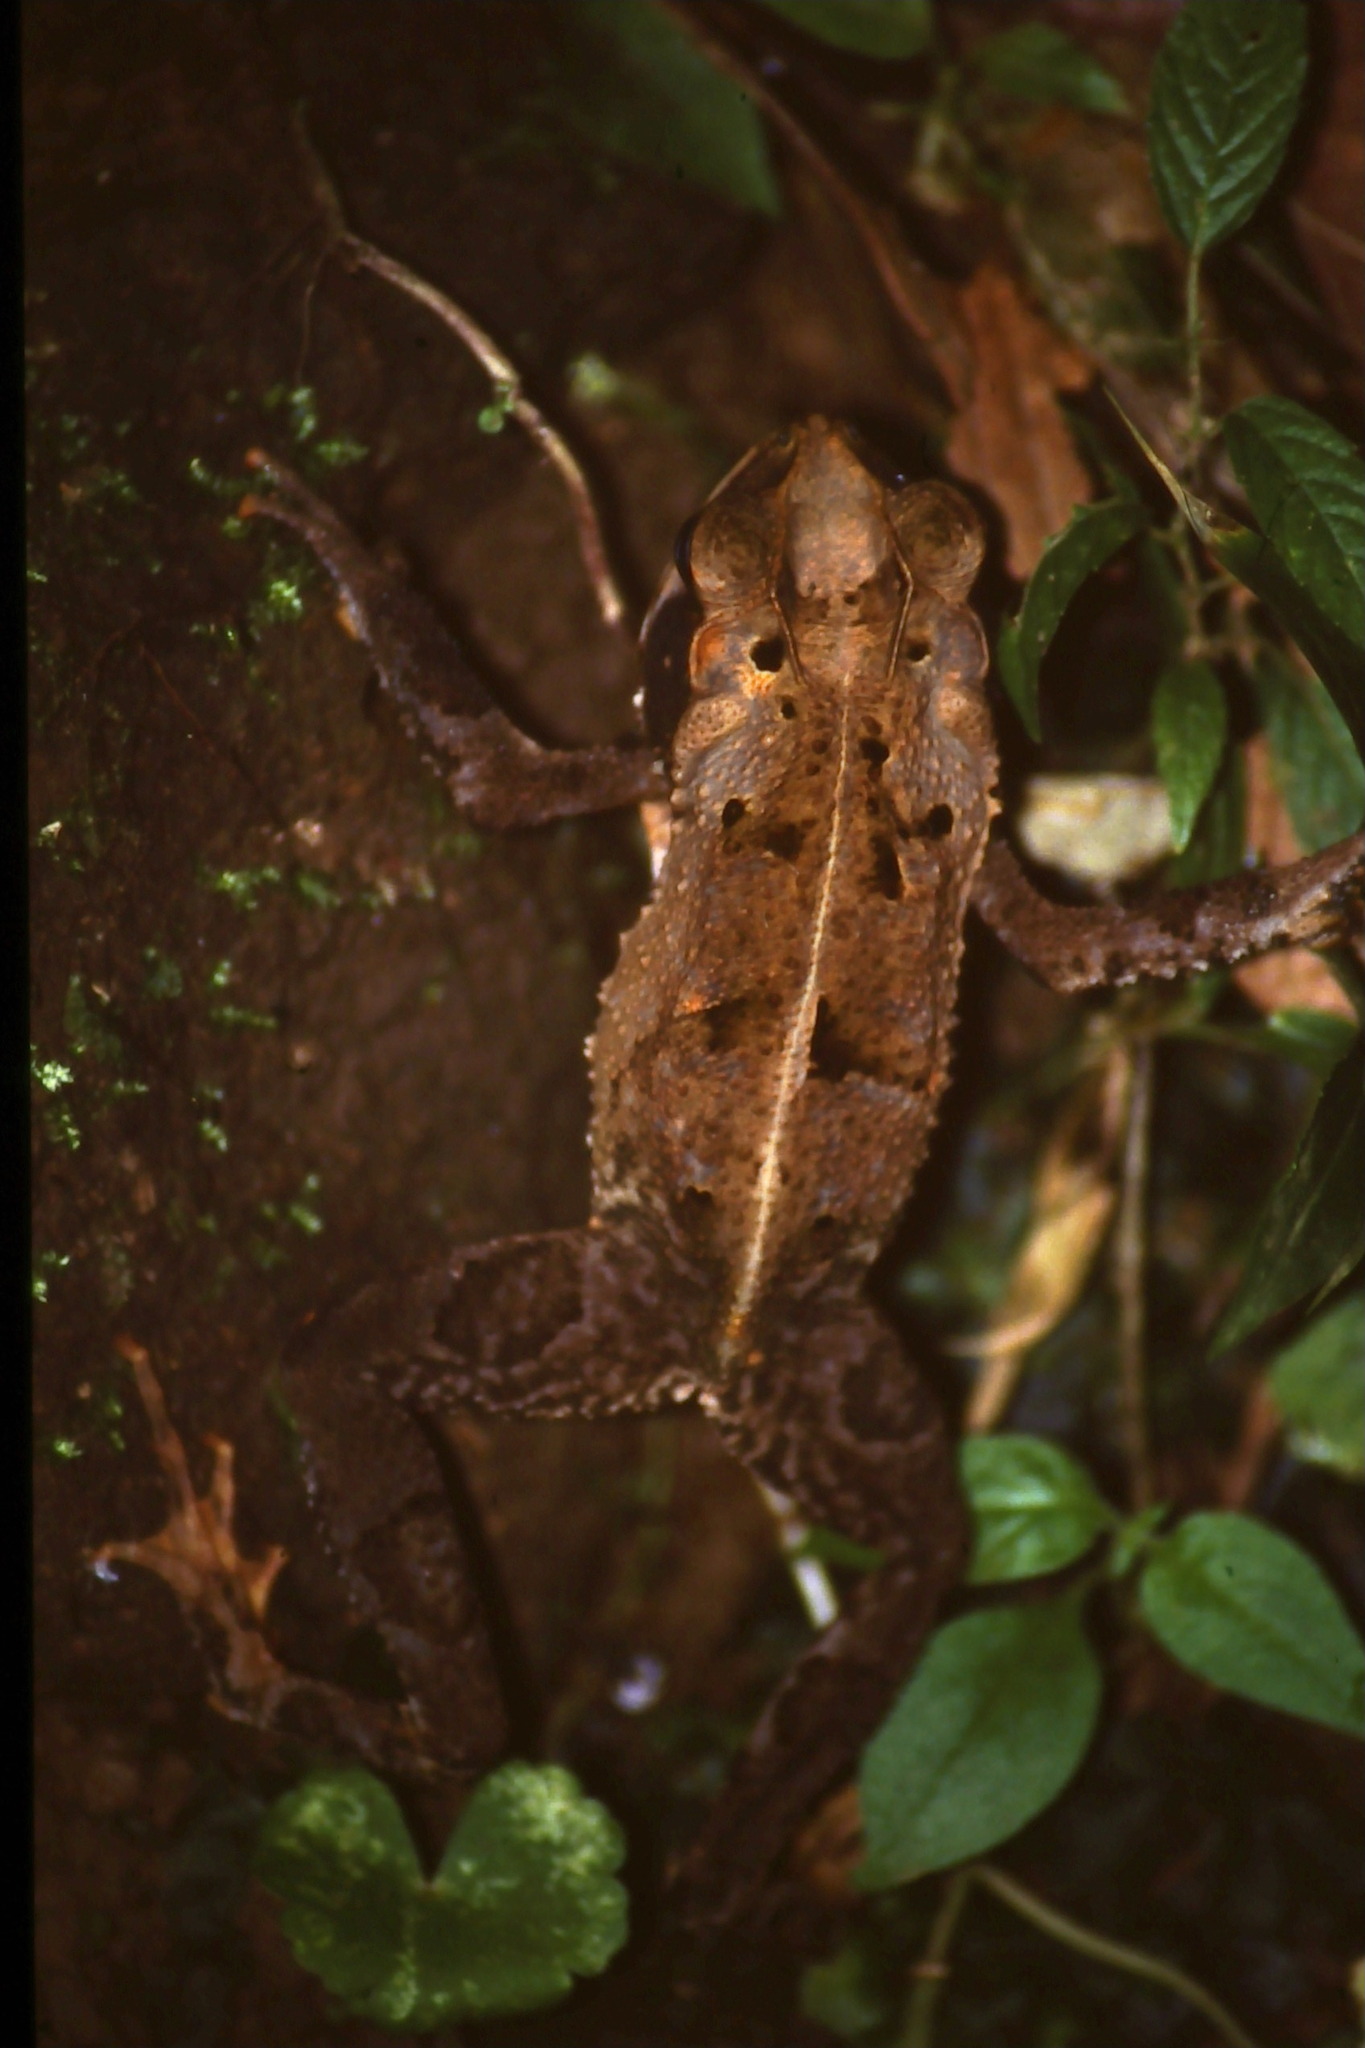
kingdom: Animalia
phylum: Chordata
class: Amphibia
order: Anura
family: Bufonidae
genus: Incilius
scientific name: Incilius melanochlorus
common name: Dark green toad
